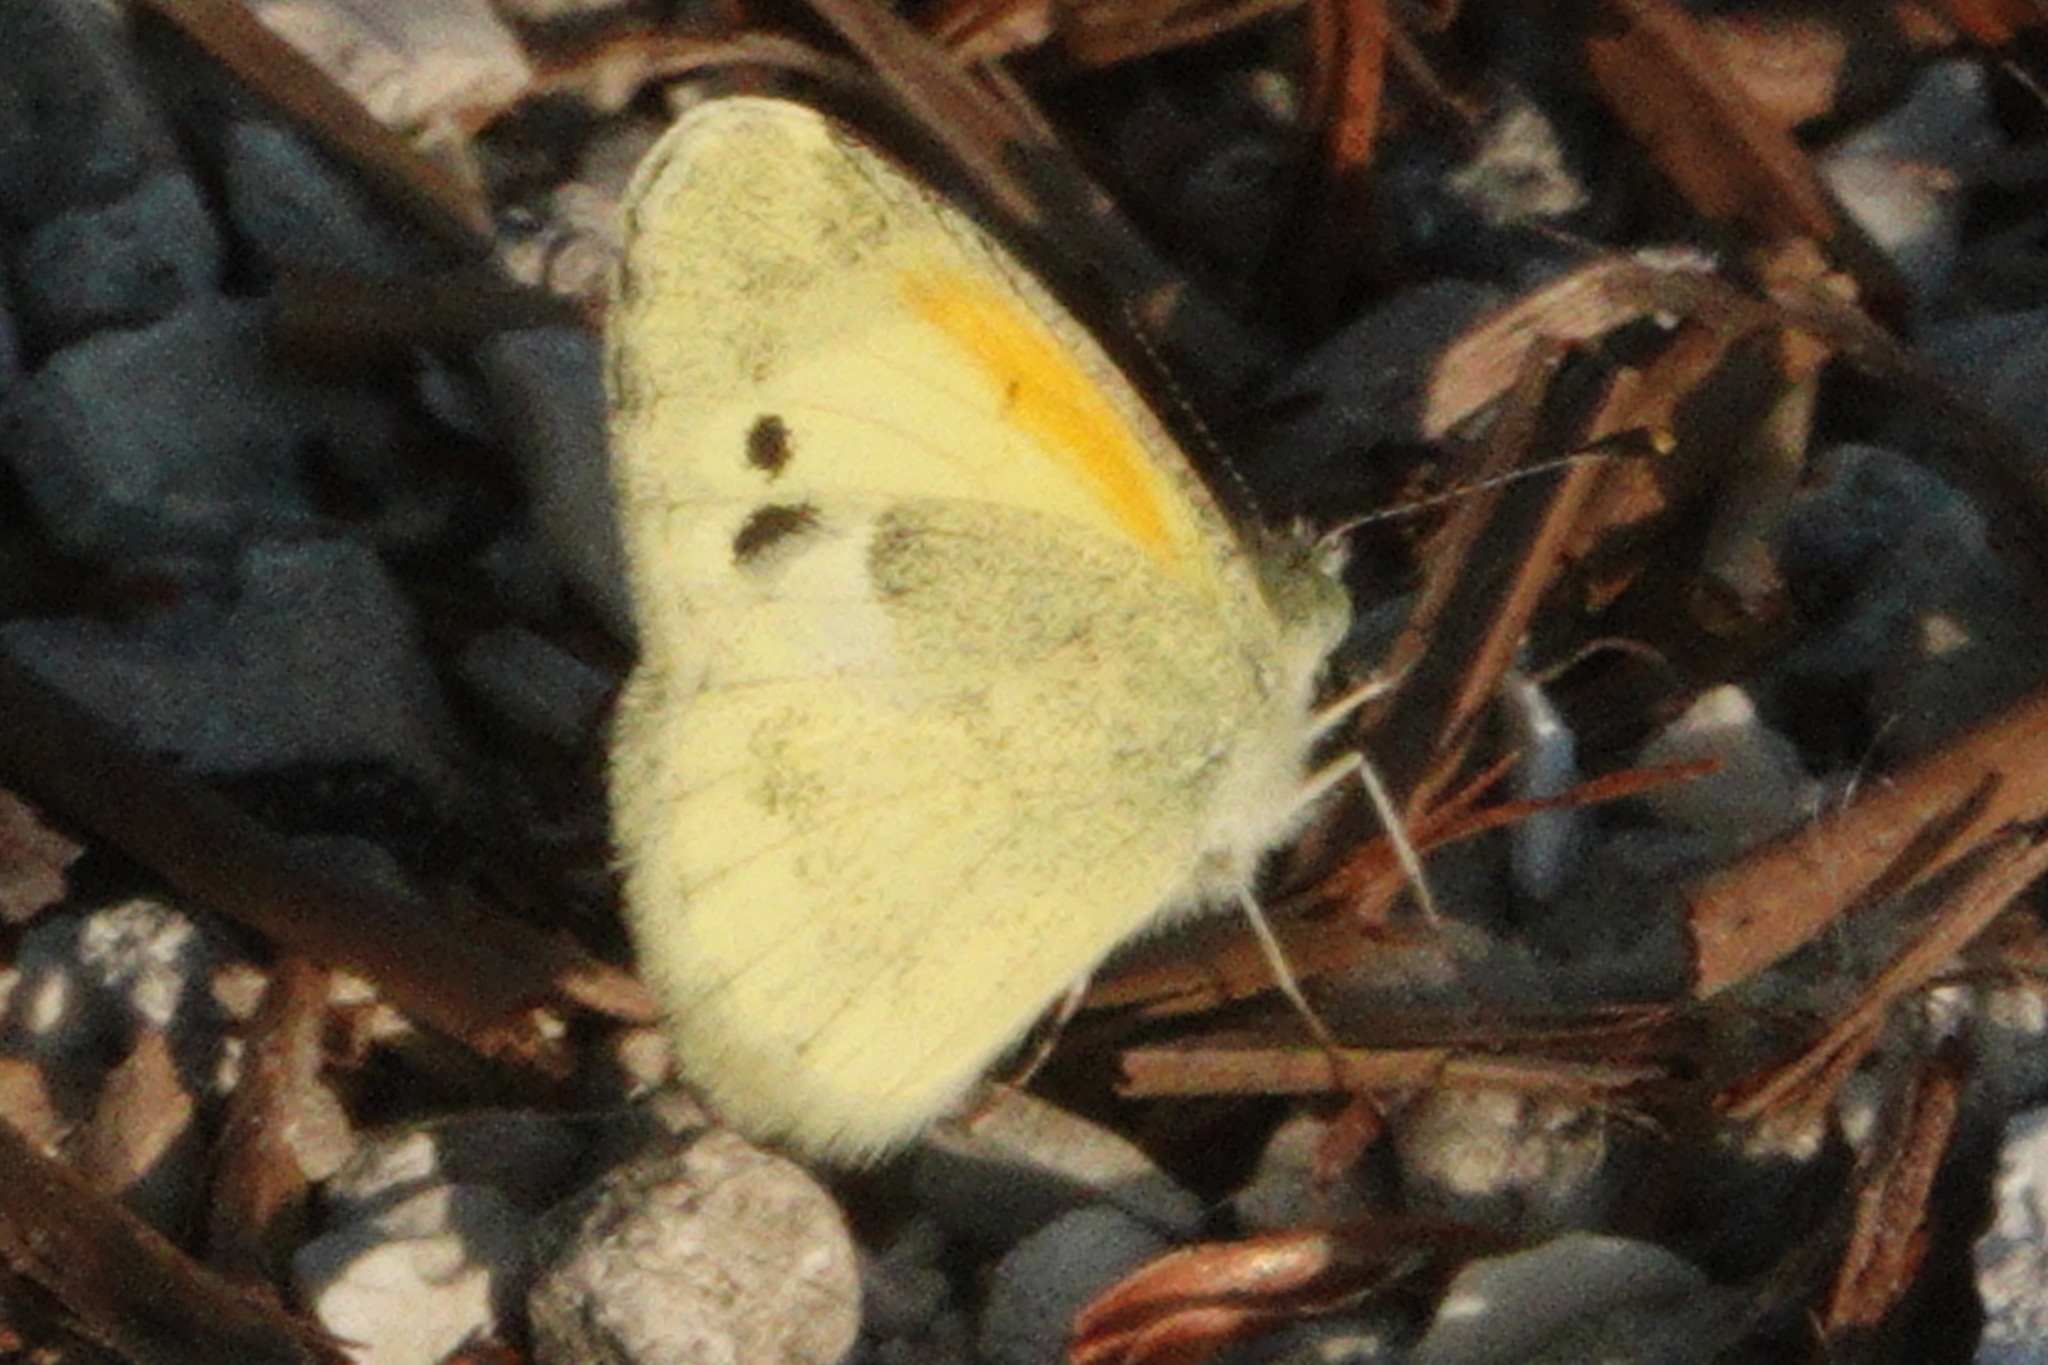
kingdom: Animalia
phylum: Arthropoda
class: Insecta
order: Lepidoptera
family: Pieridae
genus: Nathalis
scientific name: Nathalis iole
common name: Dainty sulphur
